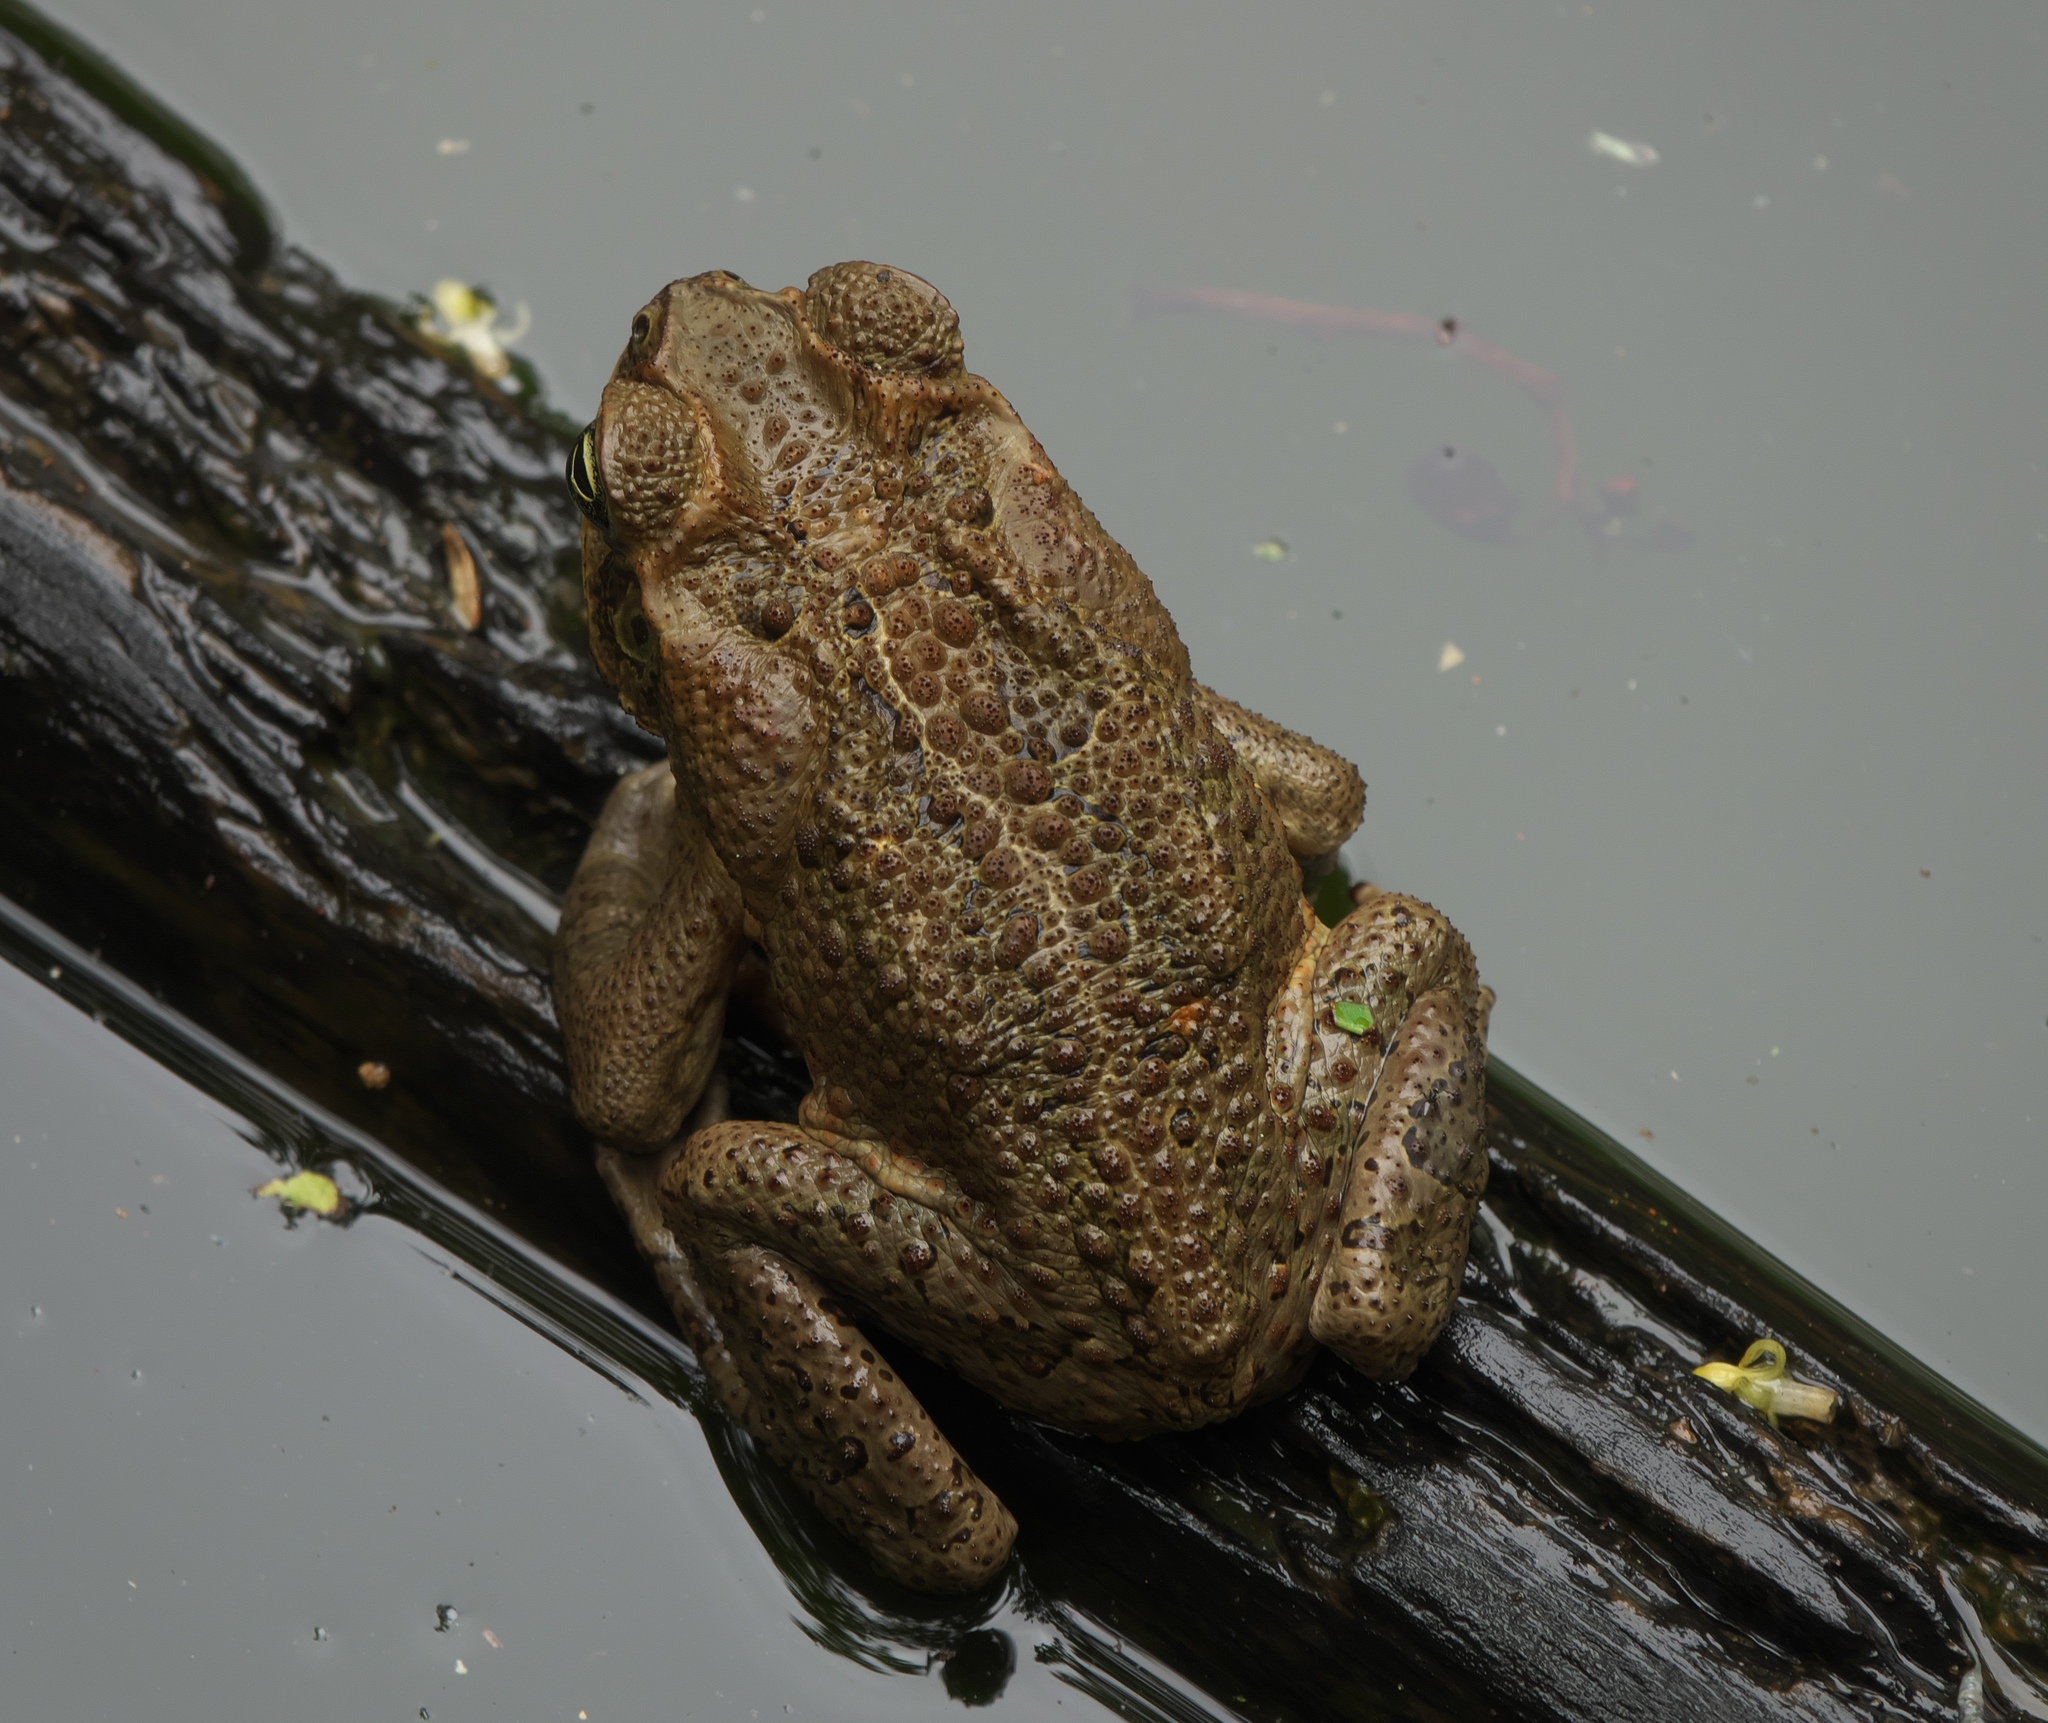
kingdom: Animalia
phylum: Chordata
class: Amphibia
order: Anura
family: Bufonidae
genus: Rhinella
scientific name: Rhinella marina
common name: Cane toad
